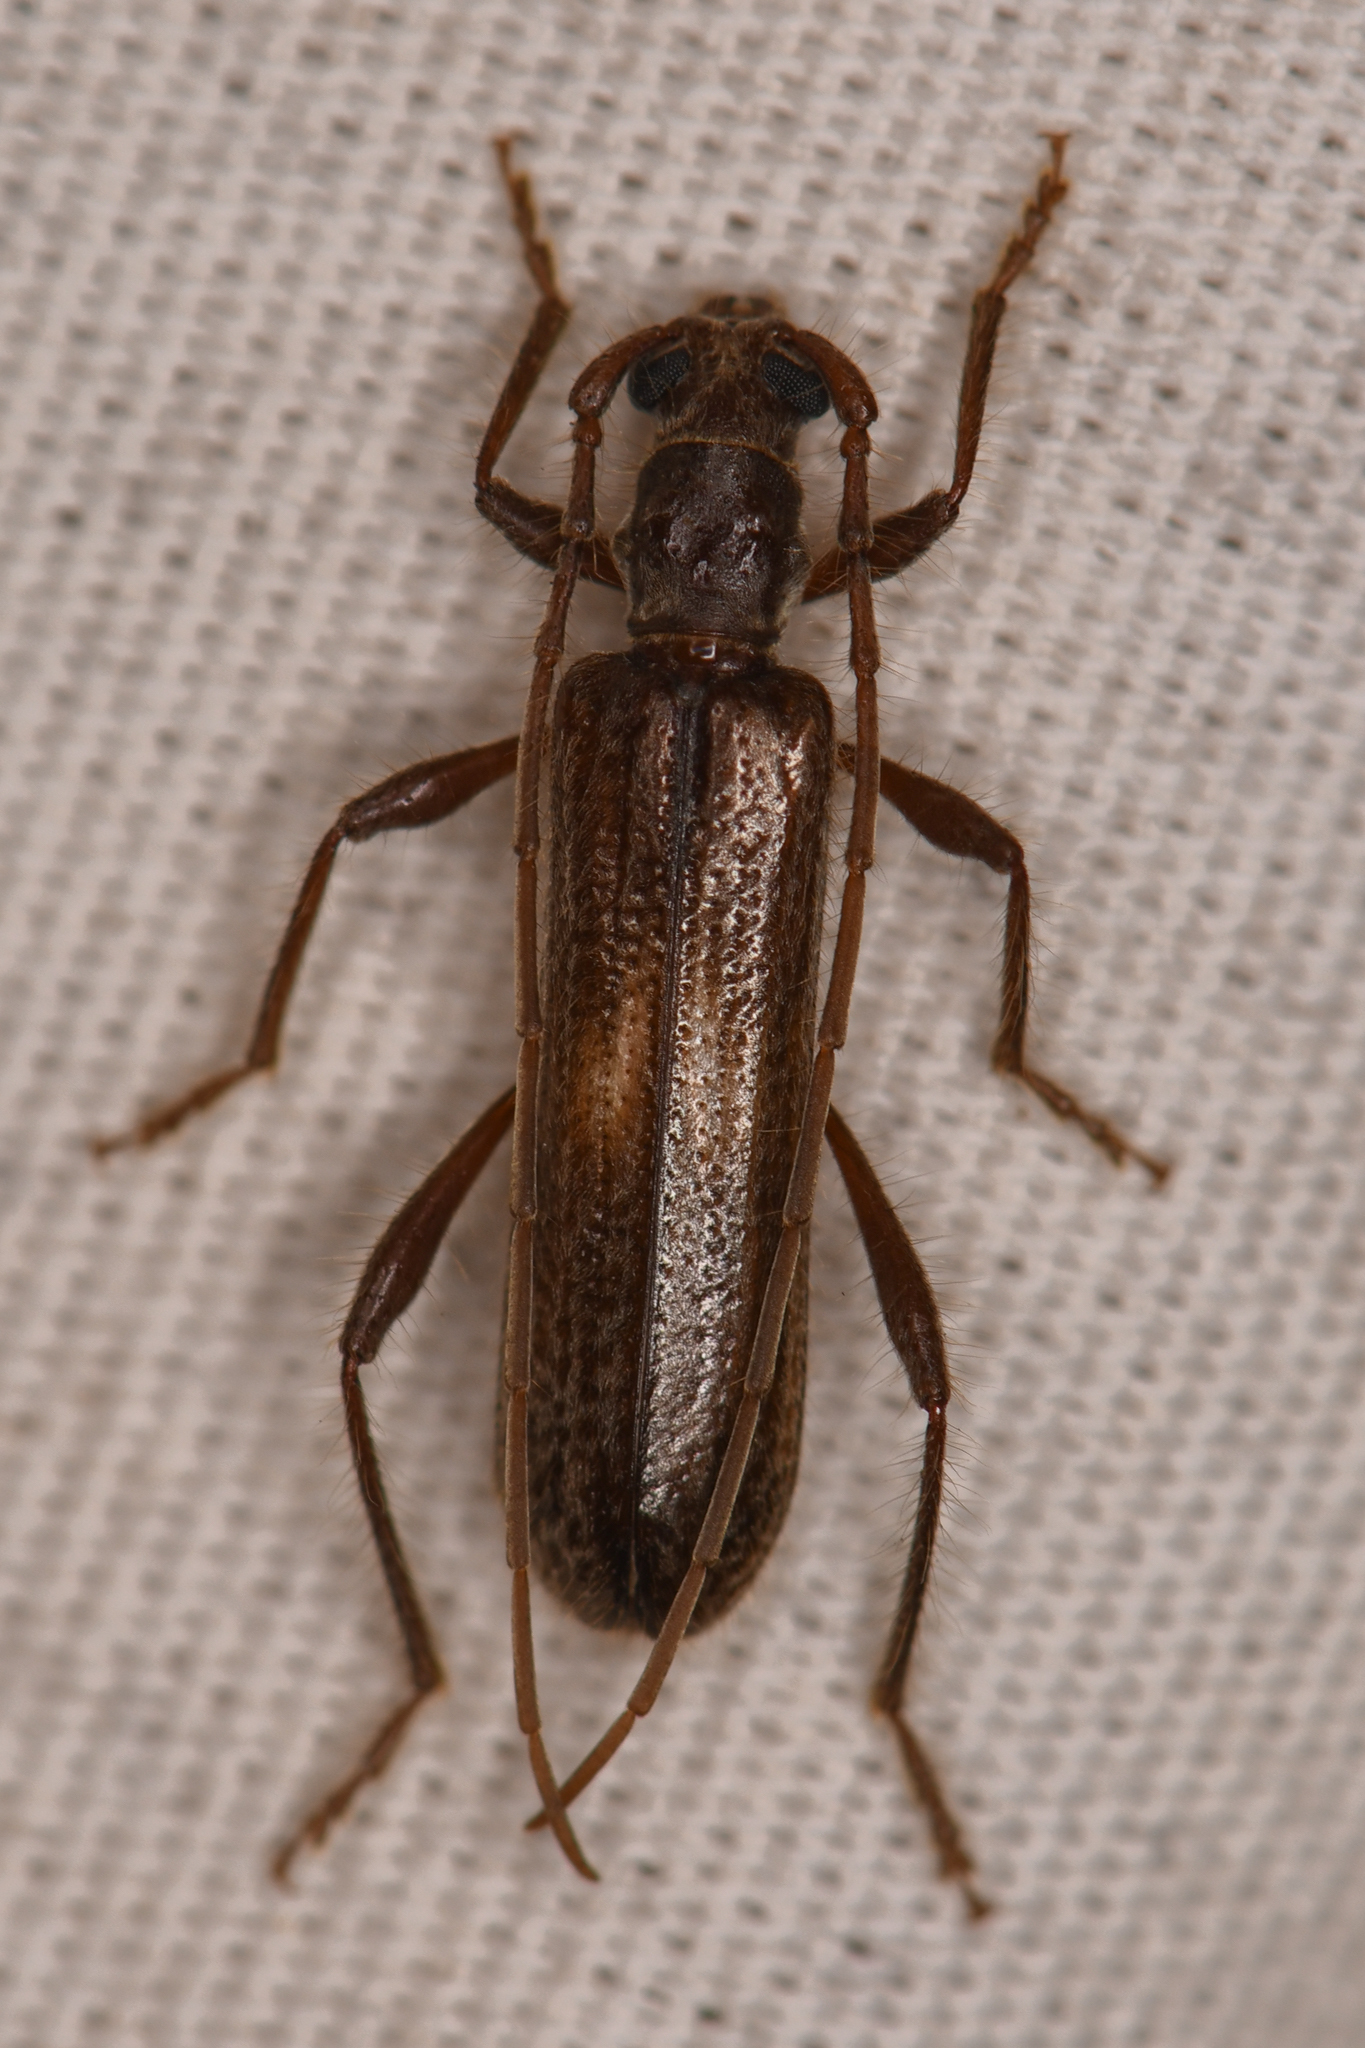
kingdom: Animalia
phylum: Arthropoda
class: Insecta
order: Coleoptera
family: Cerambycidae
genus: Megobrium
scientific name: Megobrium edwardsii
